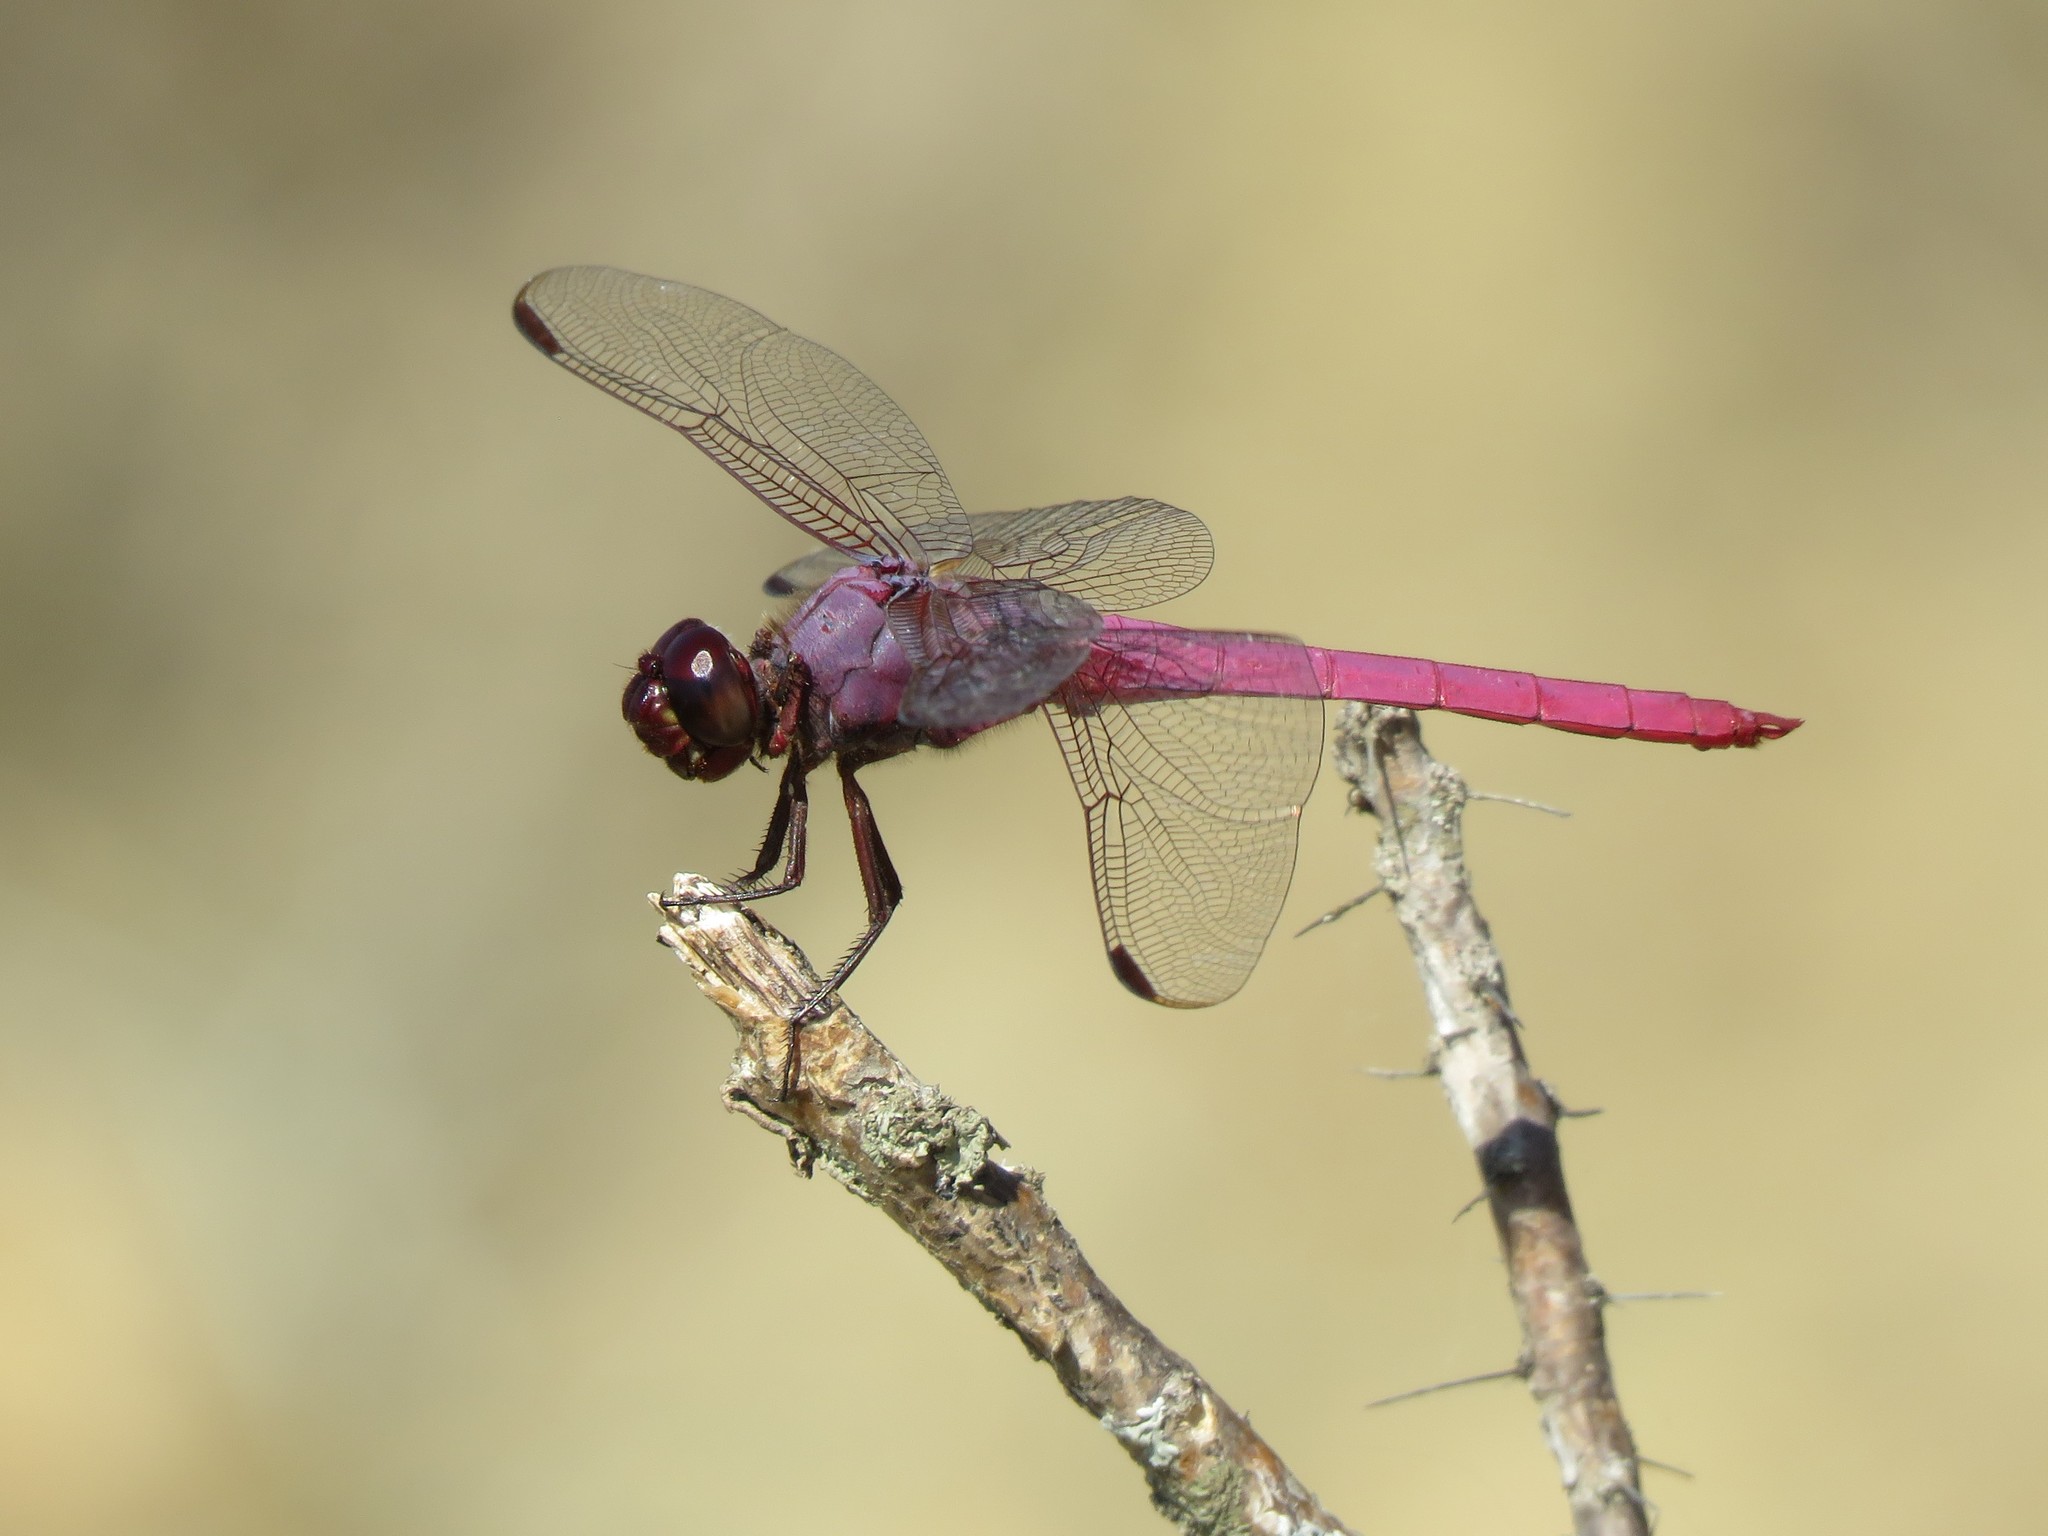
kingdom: Animalia
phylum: Arthropoda
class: Insecta
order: Odonata
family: Libellulidae
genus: Orthemis
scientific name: Orthemis ferruginea
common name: Roseate skimmer
